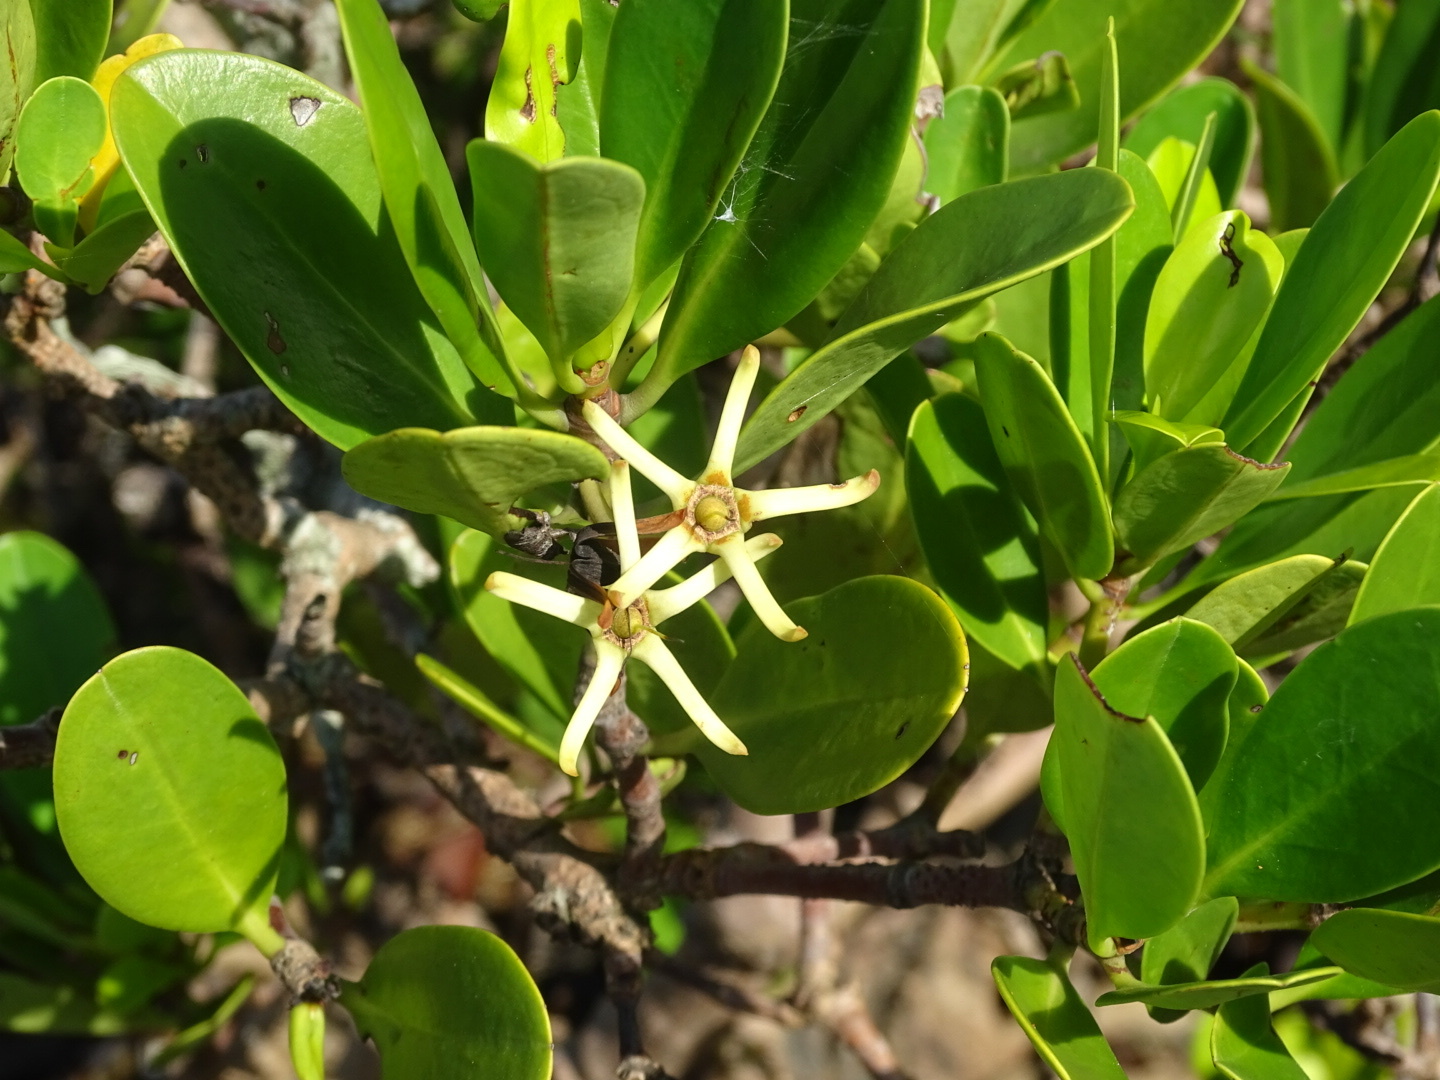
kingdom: Plantae
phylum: Tracheophyta
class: Magnoliopsida
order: Malpighiales
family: Rhizophoraceae
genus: Kandelia
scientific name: Kandelia obovata
